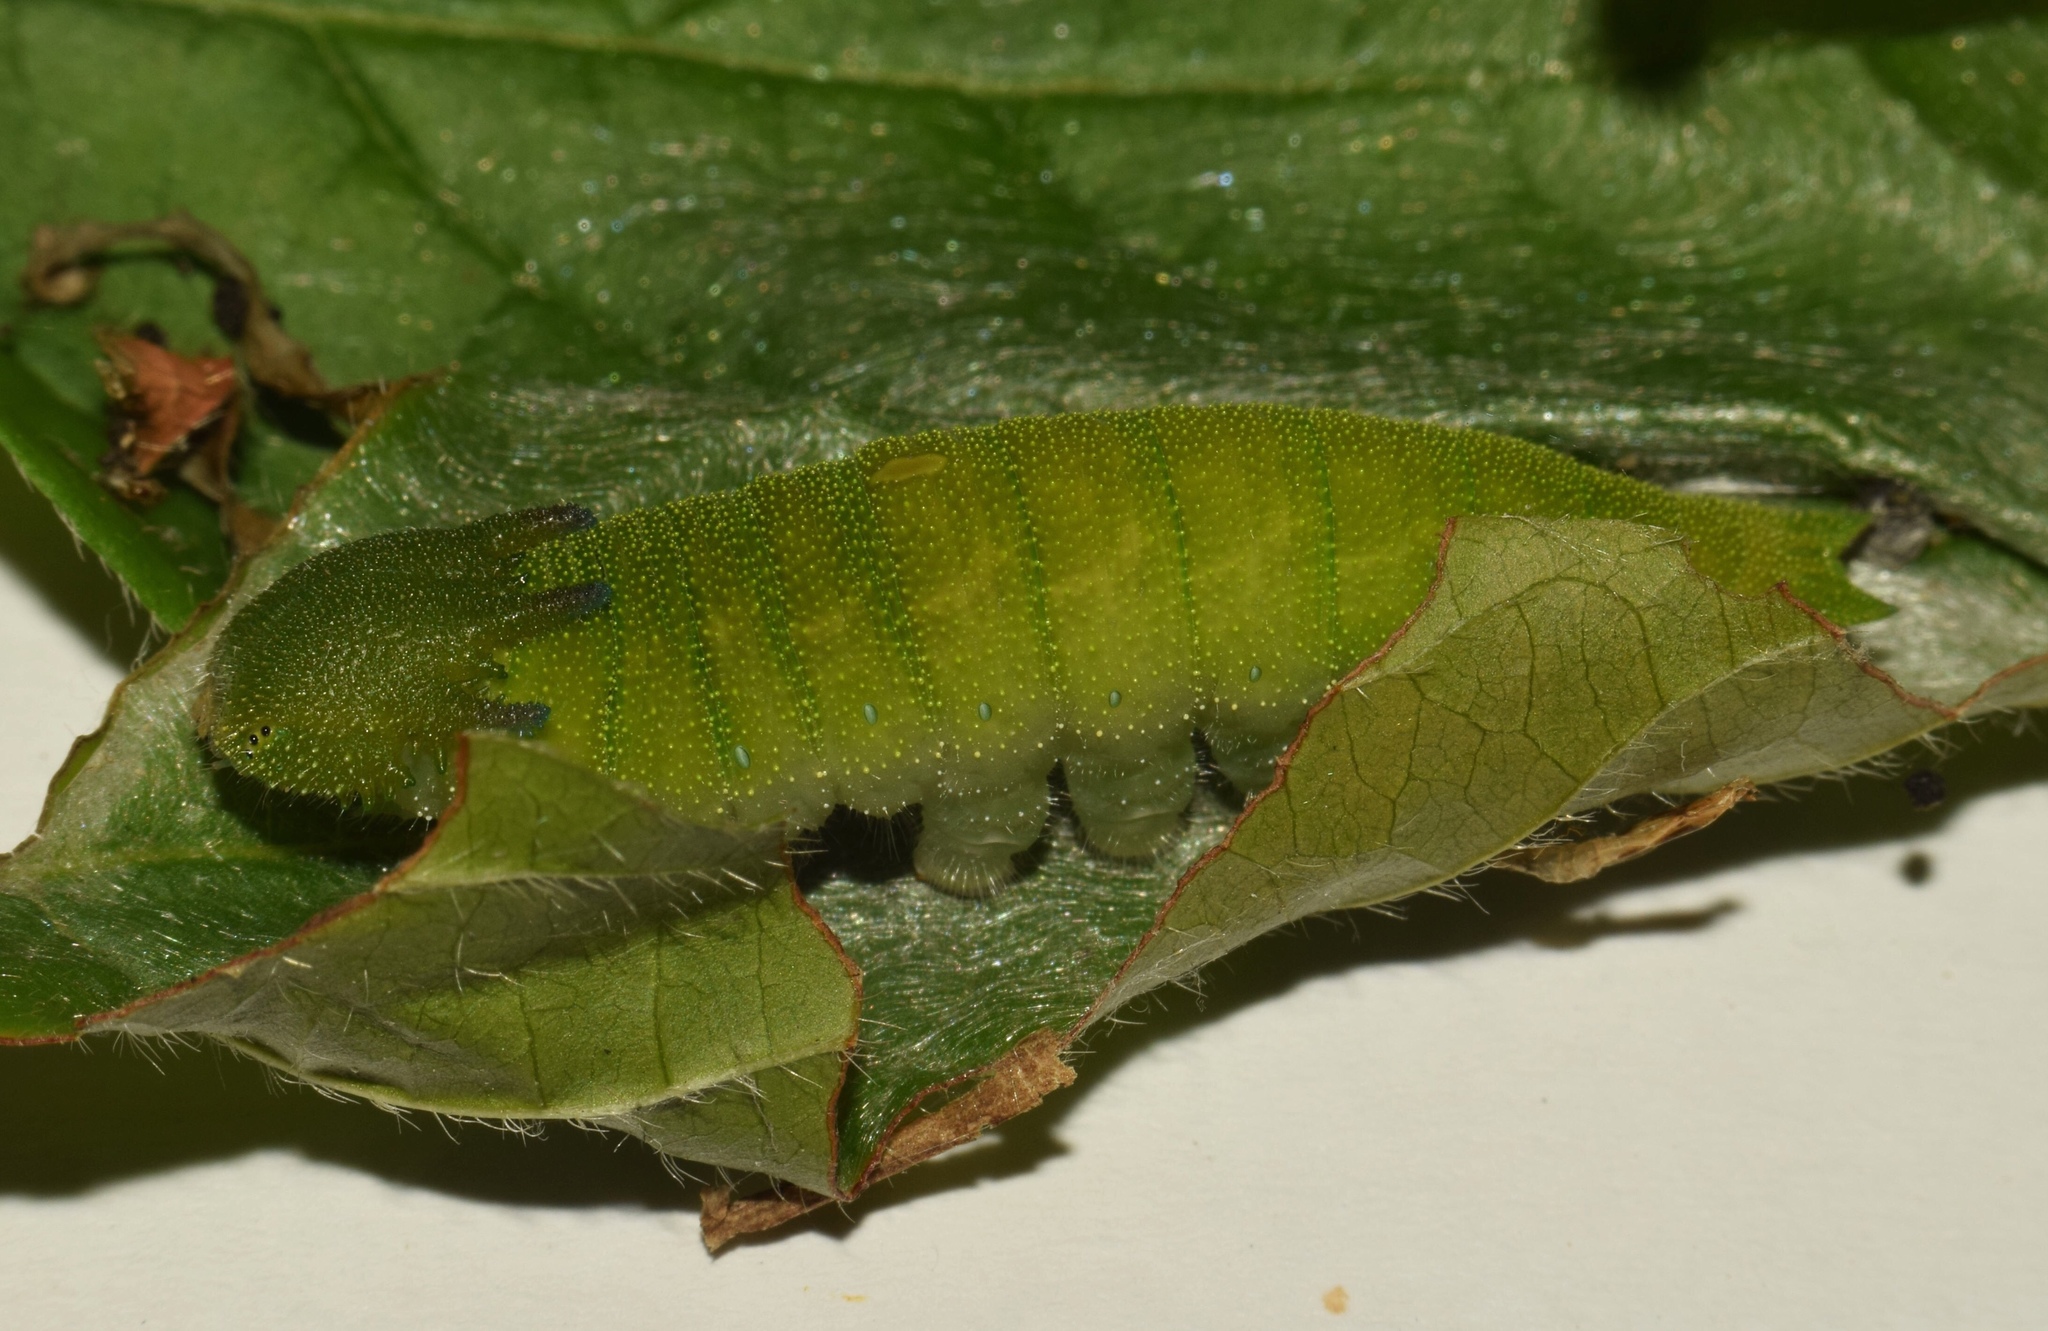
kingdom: Animalia
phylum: Arthropoda
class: Insecta
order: Lepidoptera
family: Nymphalidae
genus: Charaxes
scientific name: Charaxes brutus
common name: White-barred charaxes
